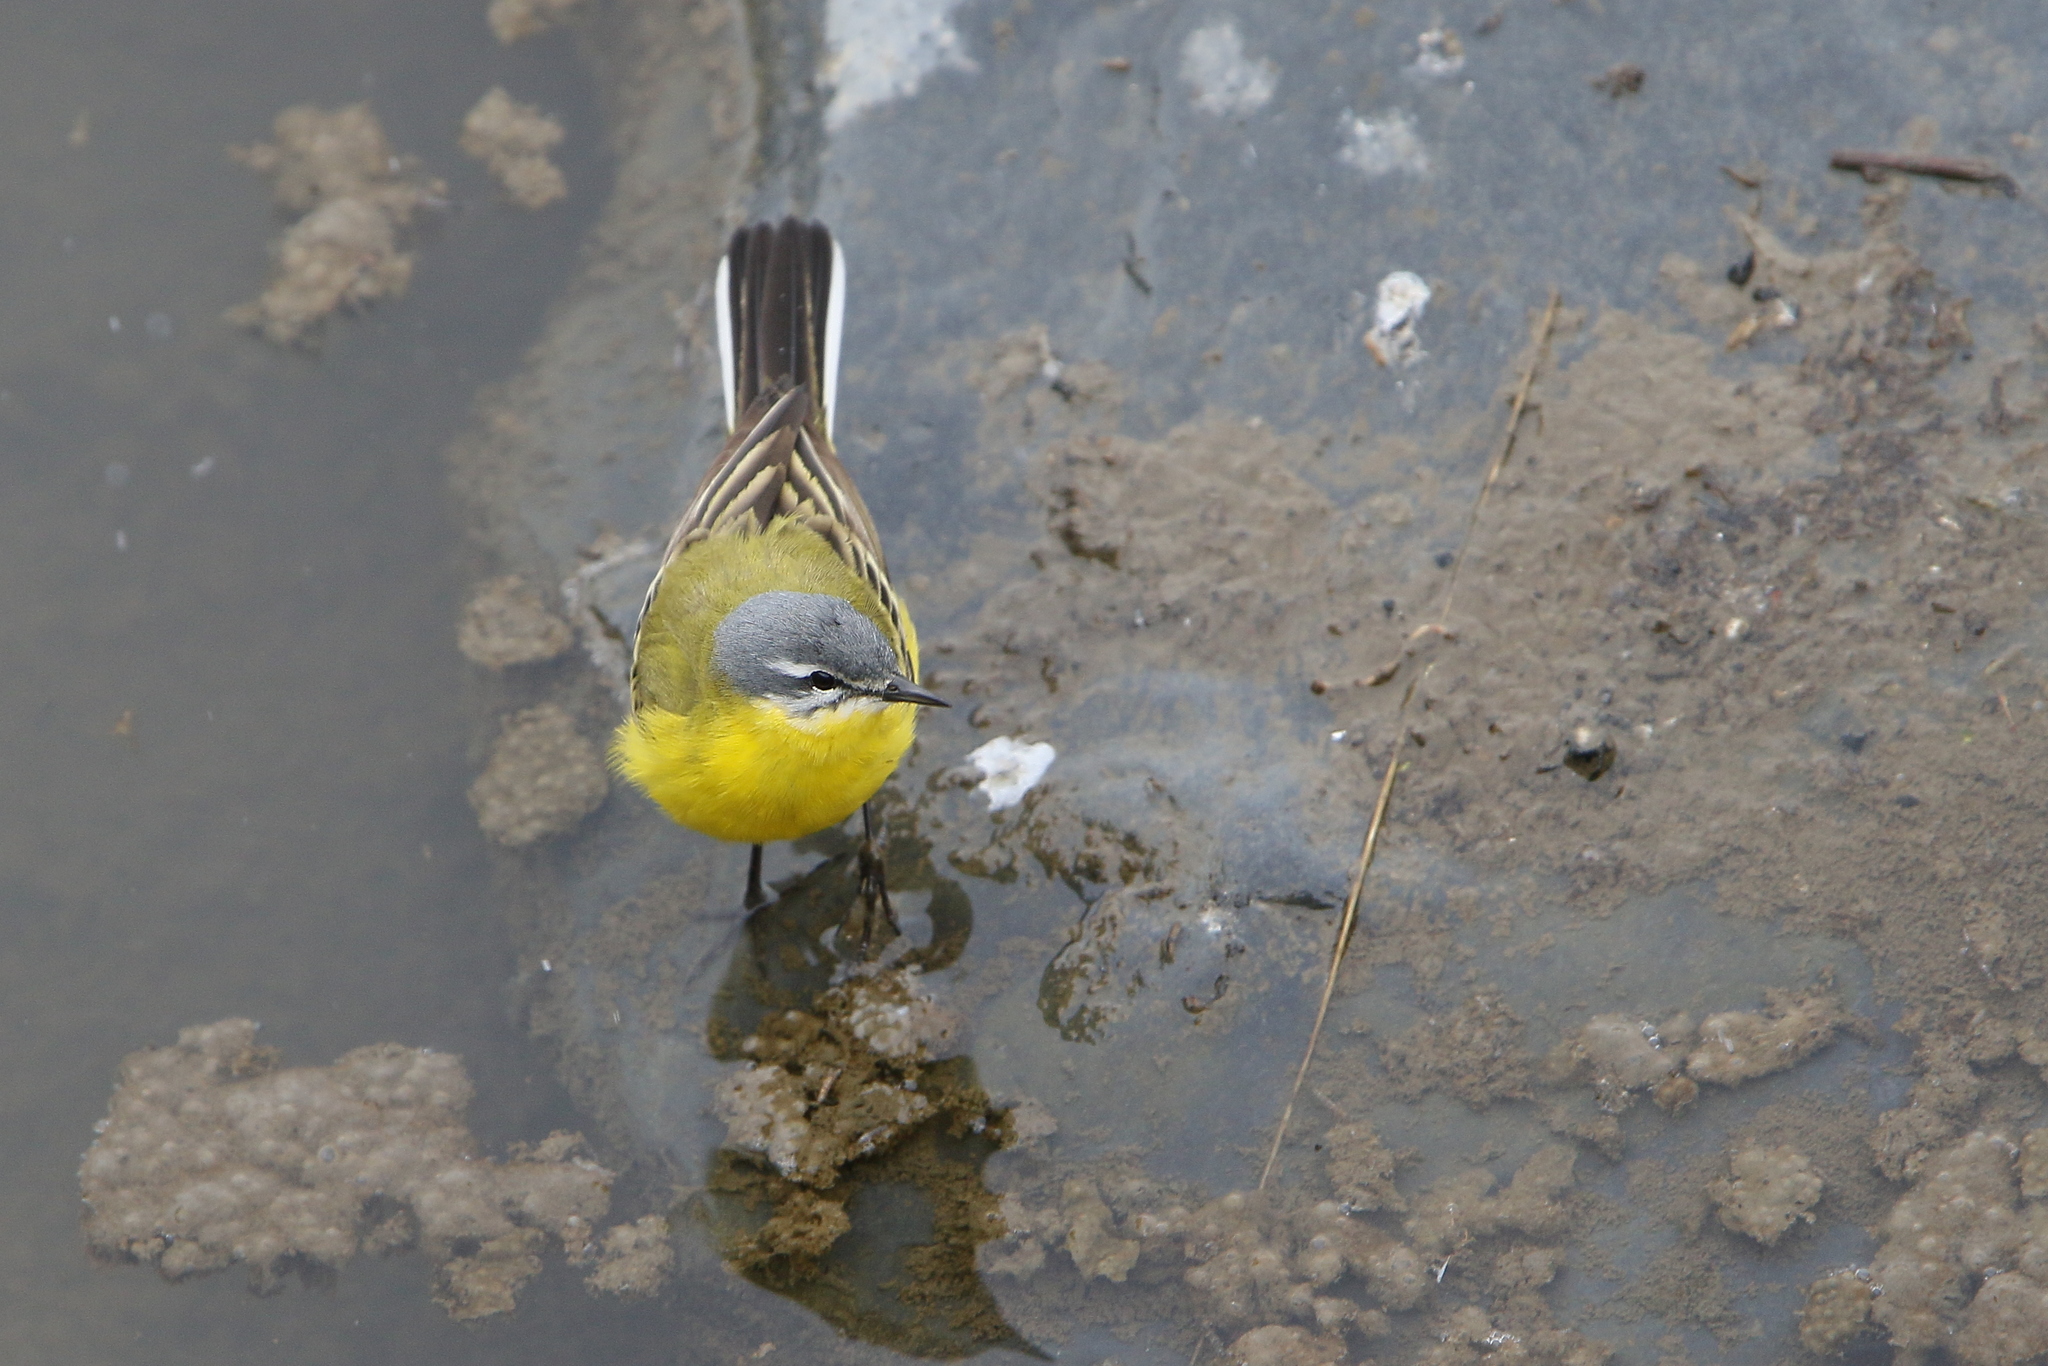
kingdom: Animalia
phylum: Chordata
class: Aves
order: Passeriformes
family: Motacillidae
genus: Motacilla
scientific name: Motacilla flava
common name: Western yellow wagtail
